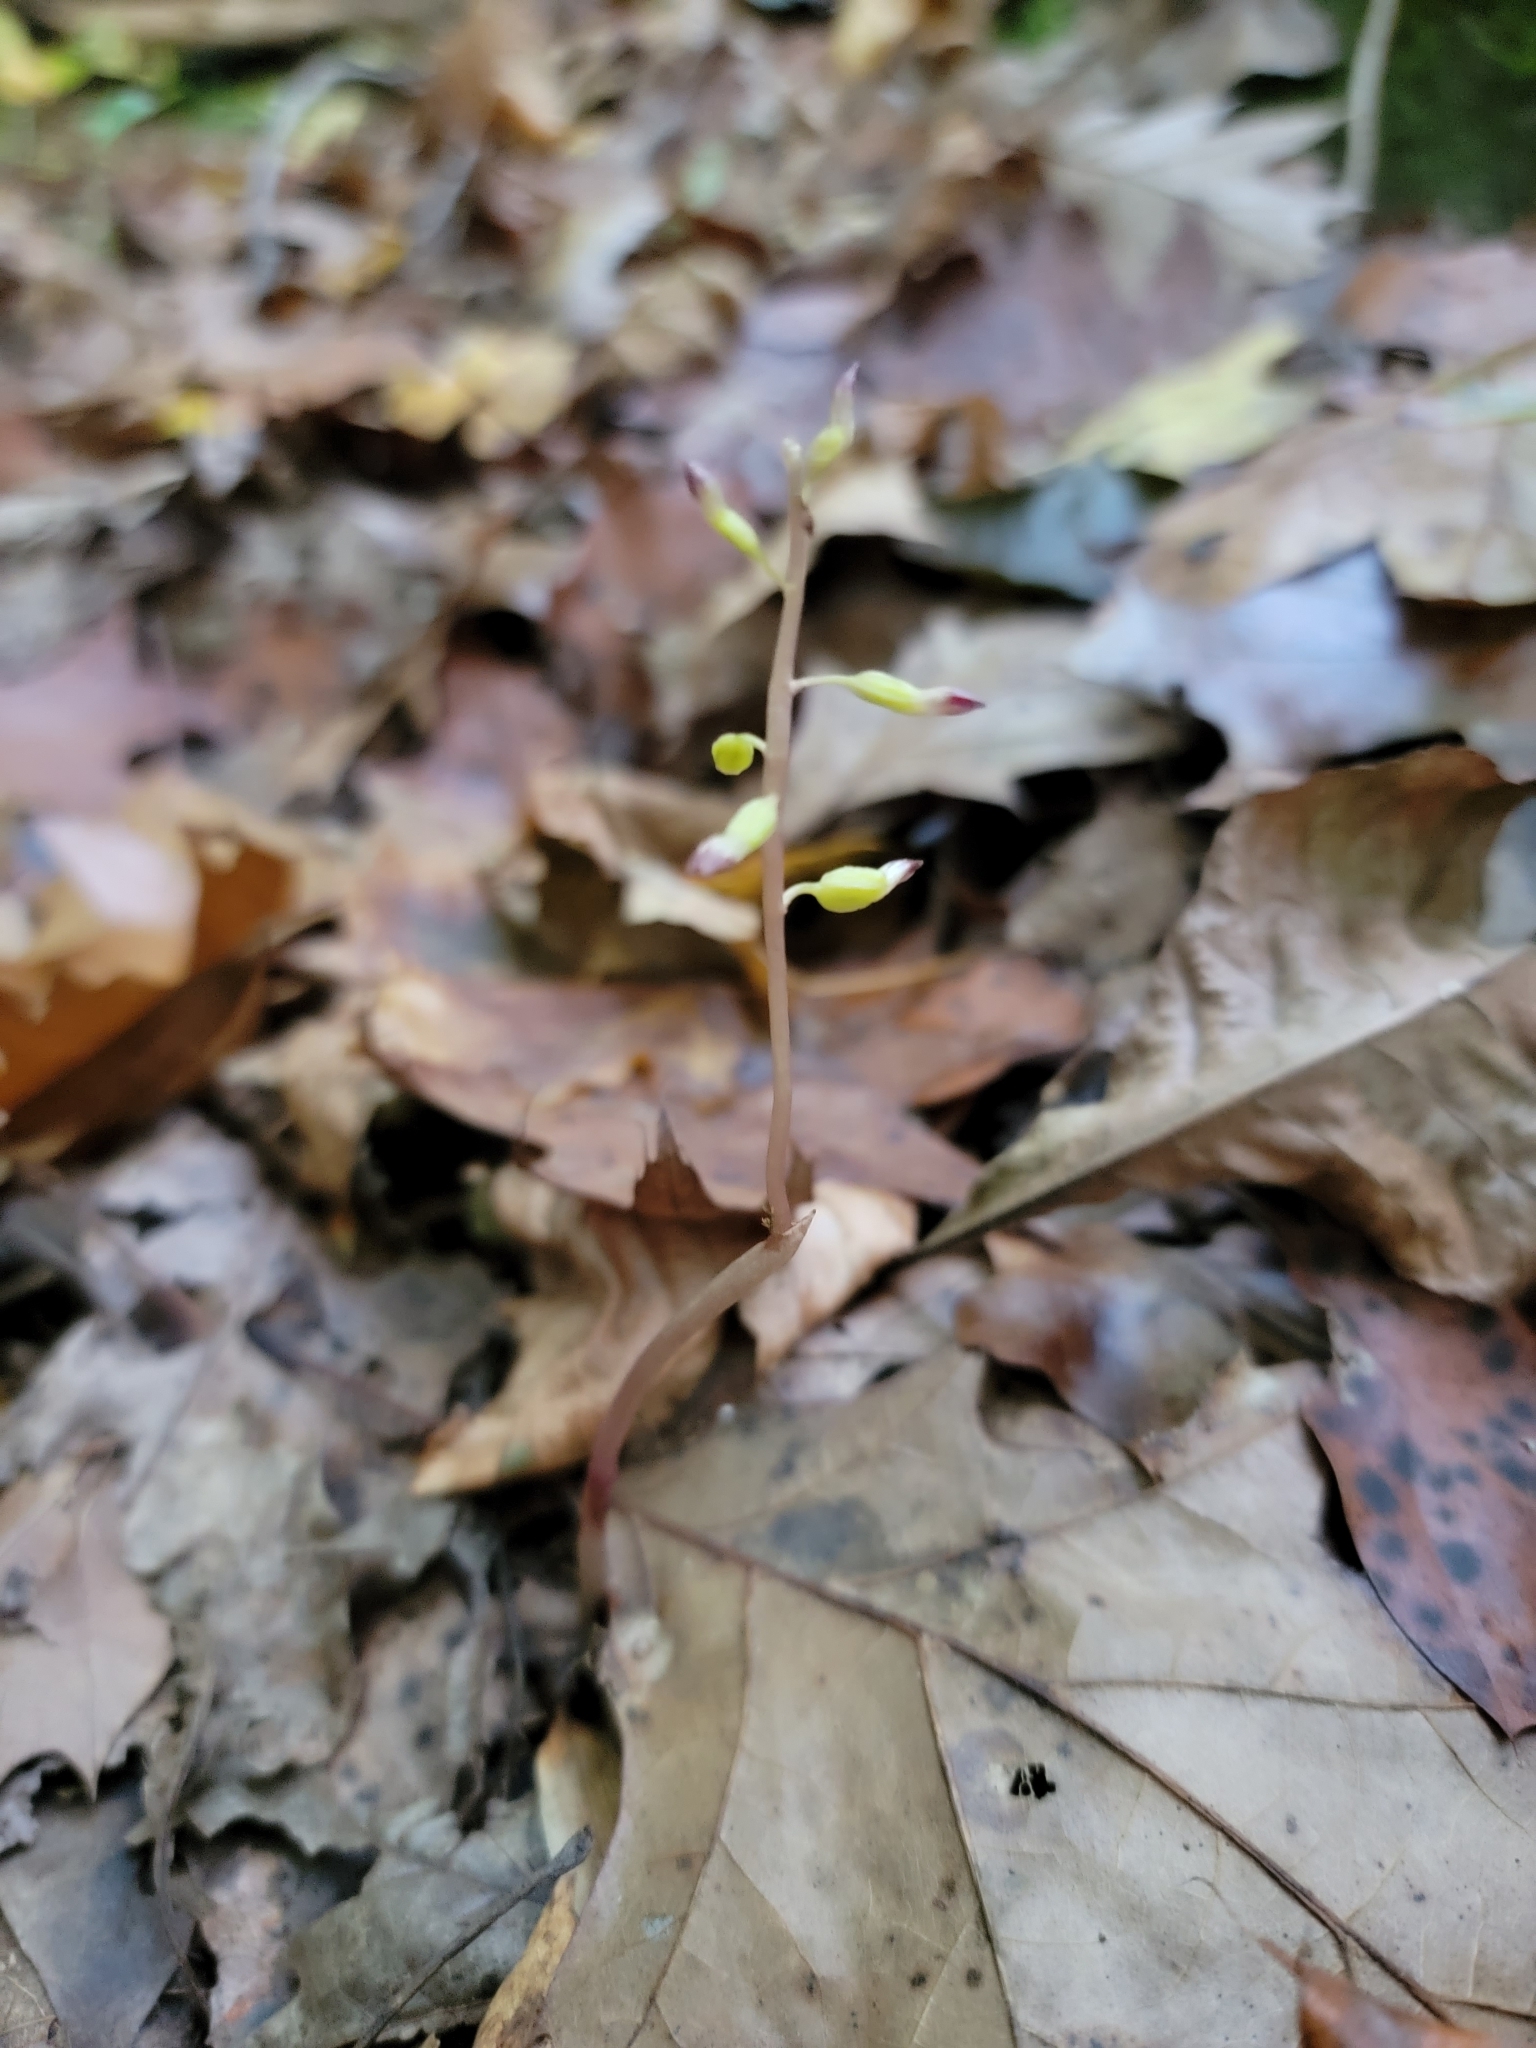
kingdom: Plantae
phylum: Tracheophyta
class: Liliopsida
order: Asparagales
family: Orchidaceae
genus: Corallorhiza
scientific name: Corallorhiza odontorhiza
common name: Autumn coralroot
